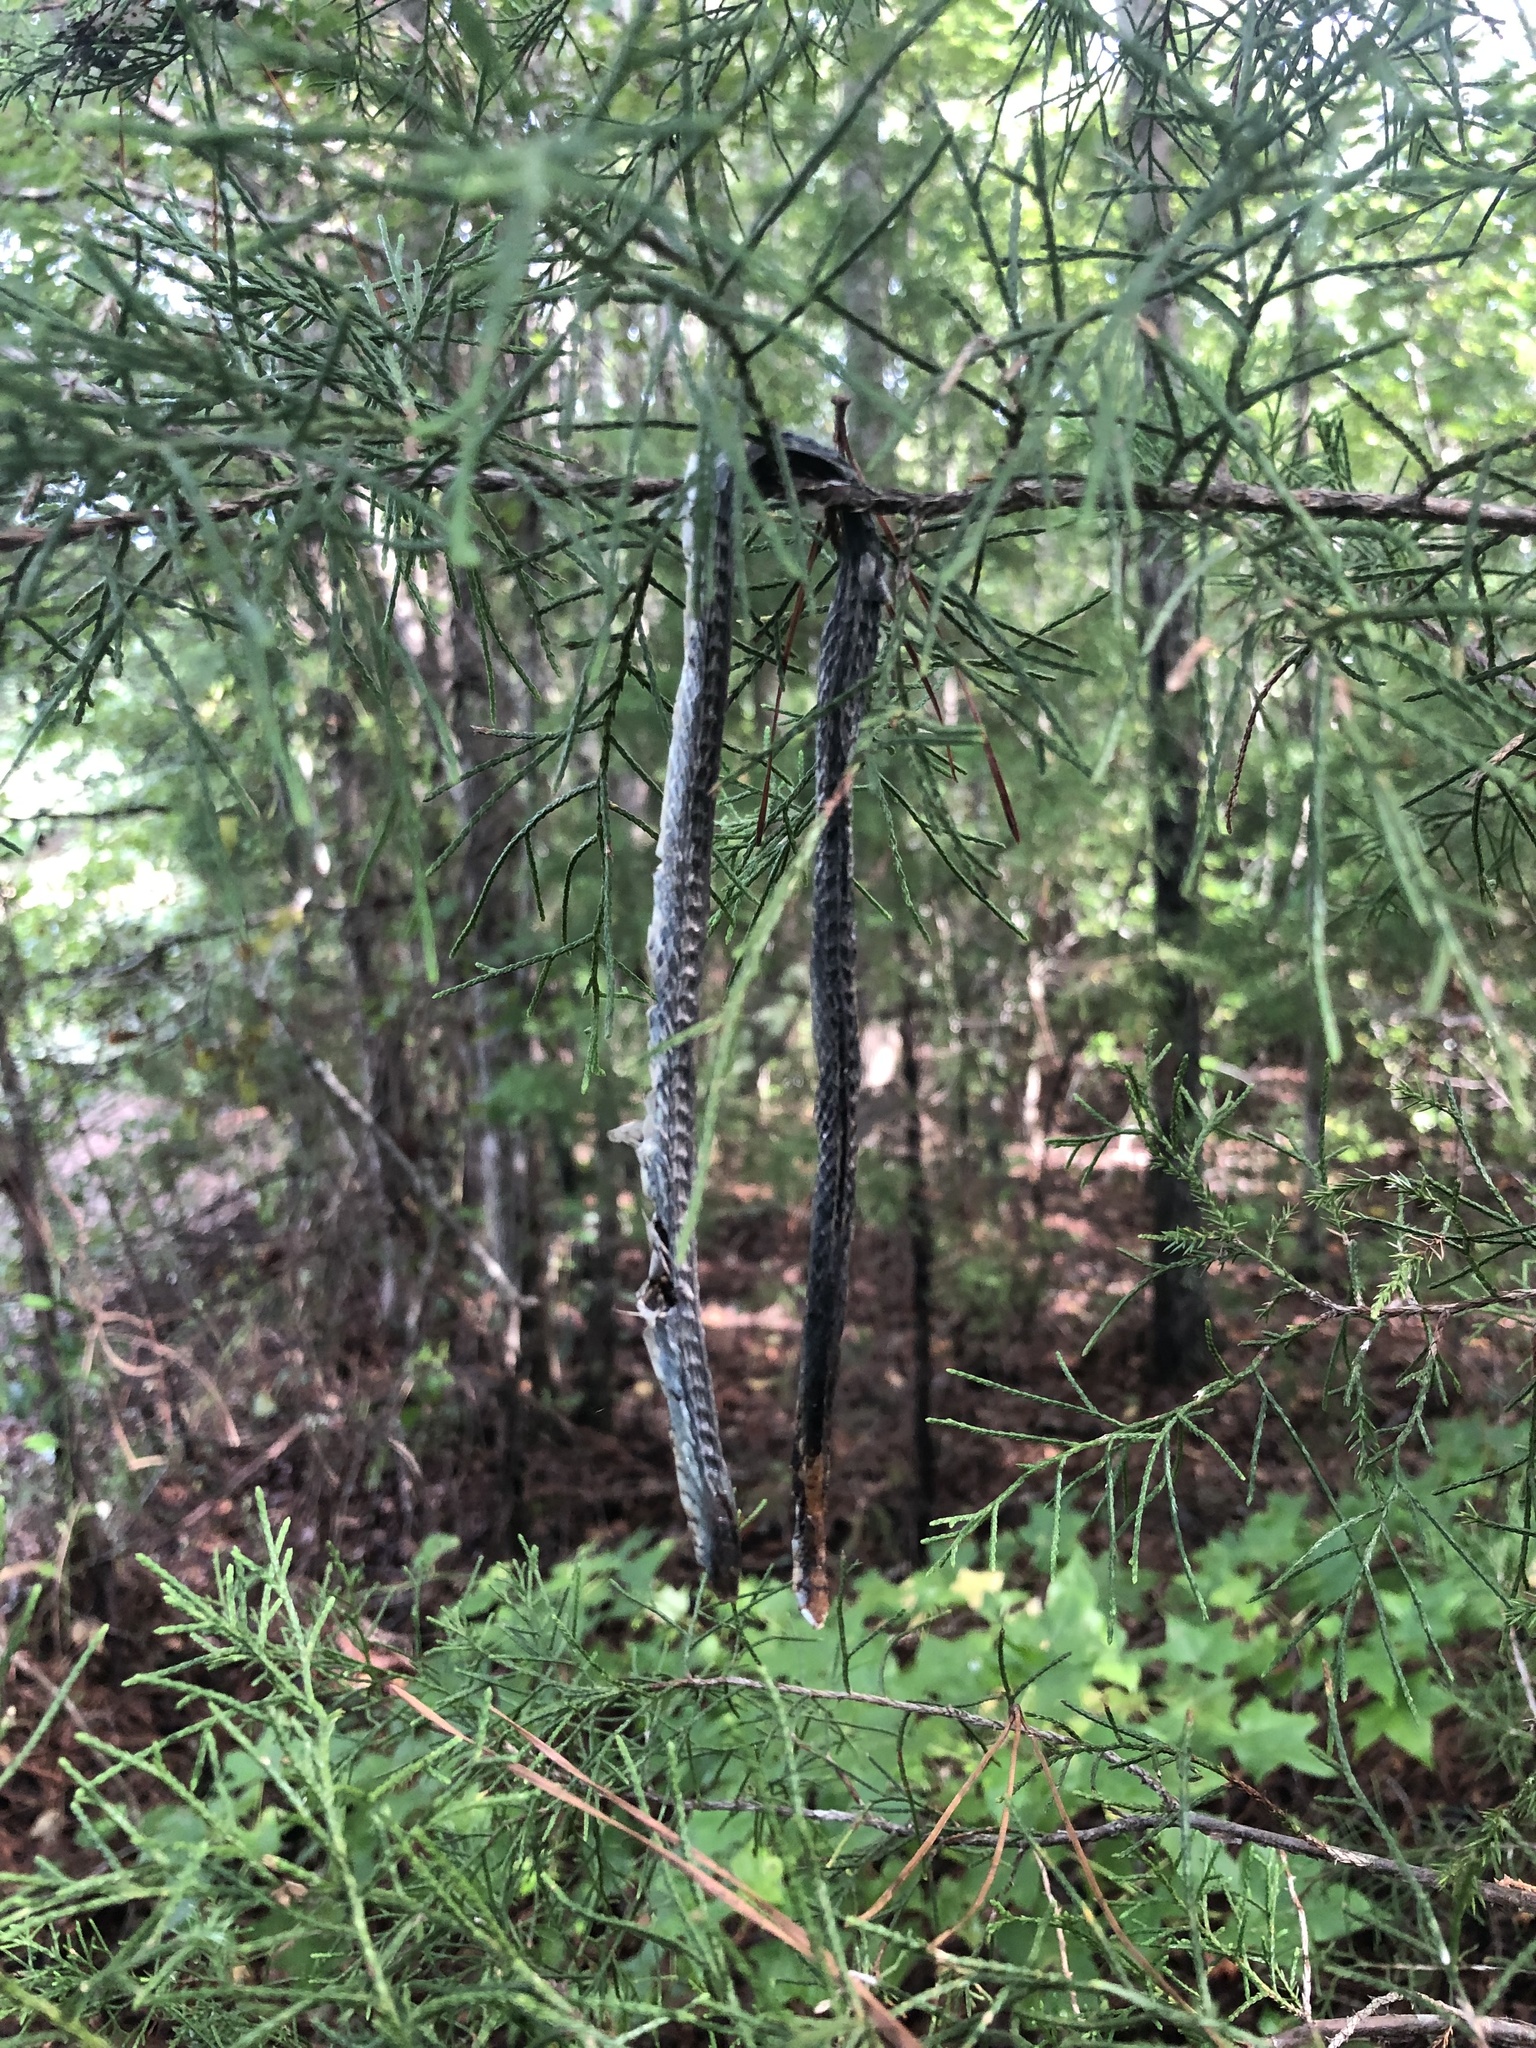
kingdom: Animalia
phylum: Chordata
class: Squamata
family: Colubridae
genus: Opheodrys
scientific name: Opheodrys aestivus
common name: Rough greensnake
